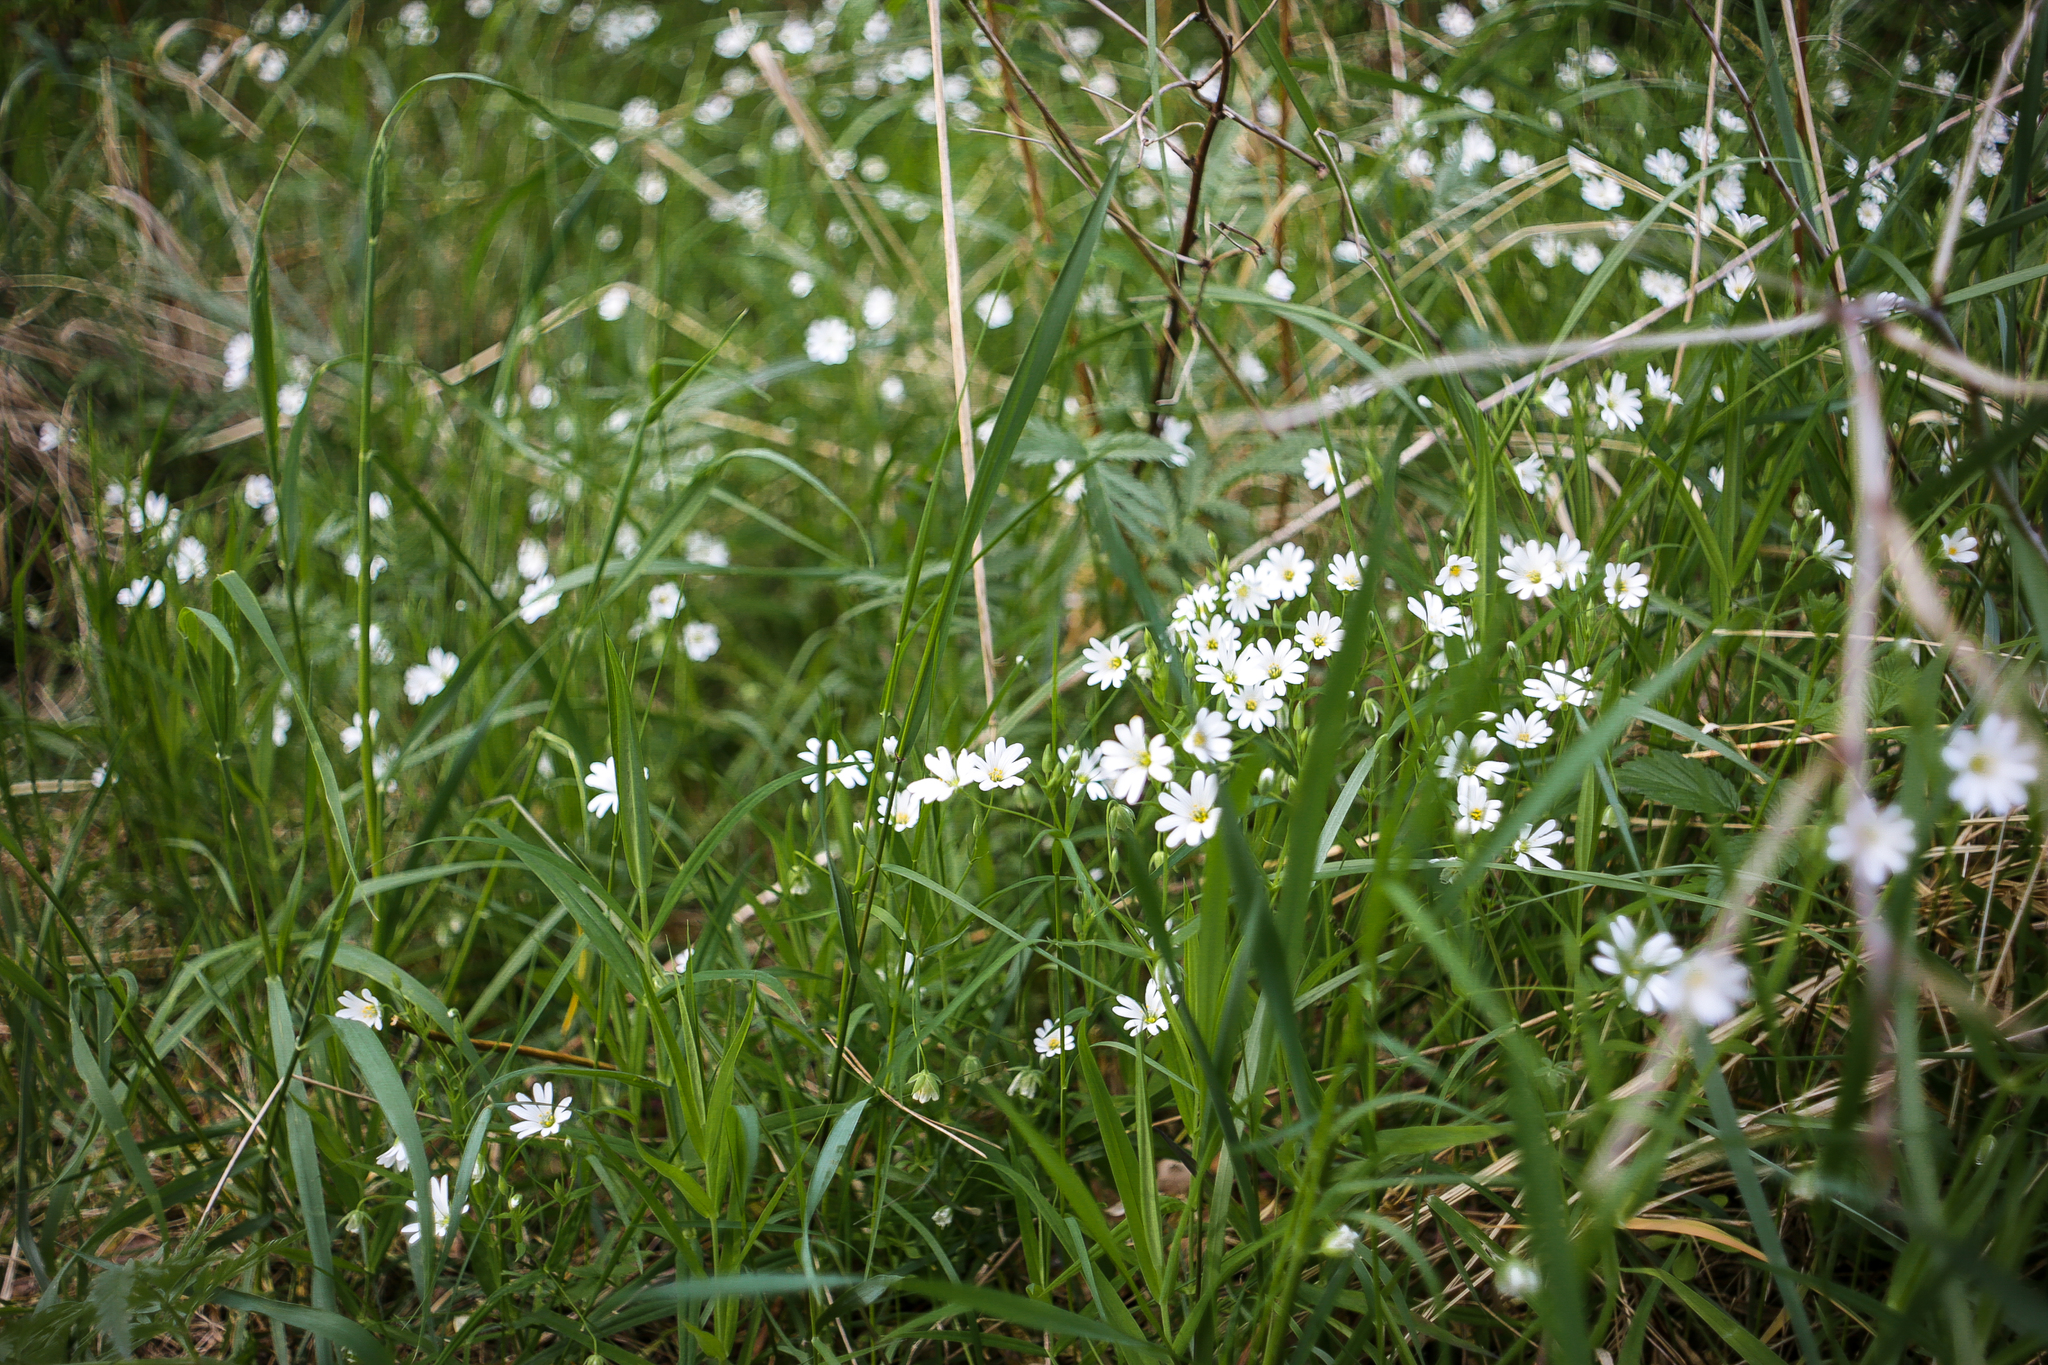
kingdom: Plantae
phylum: Tracheophyta
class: Magnoliopsida
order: Caryophyllales
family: Caryophyllaceae
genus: Rabelera
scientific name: Rabelera holostea
